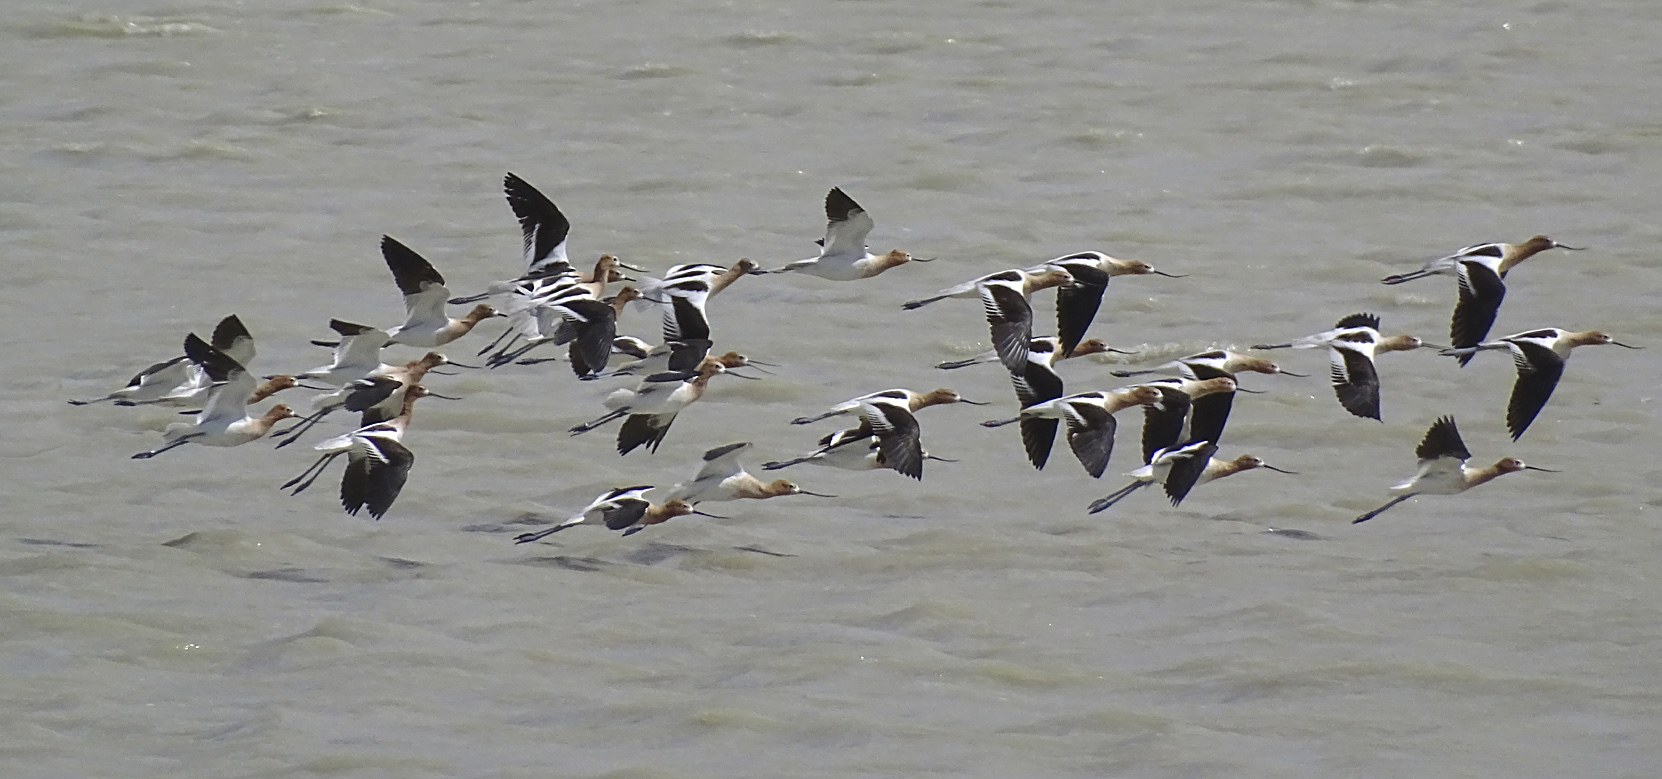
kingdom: Animalia
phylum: Chordata
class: Aves
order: Charadriiformes
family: Recurvirostridae
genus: Recurvirostra
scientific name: Recurvirostra americana
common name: American avocet
